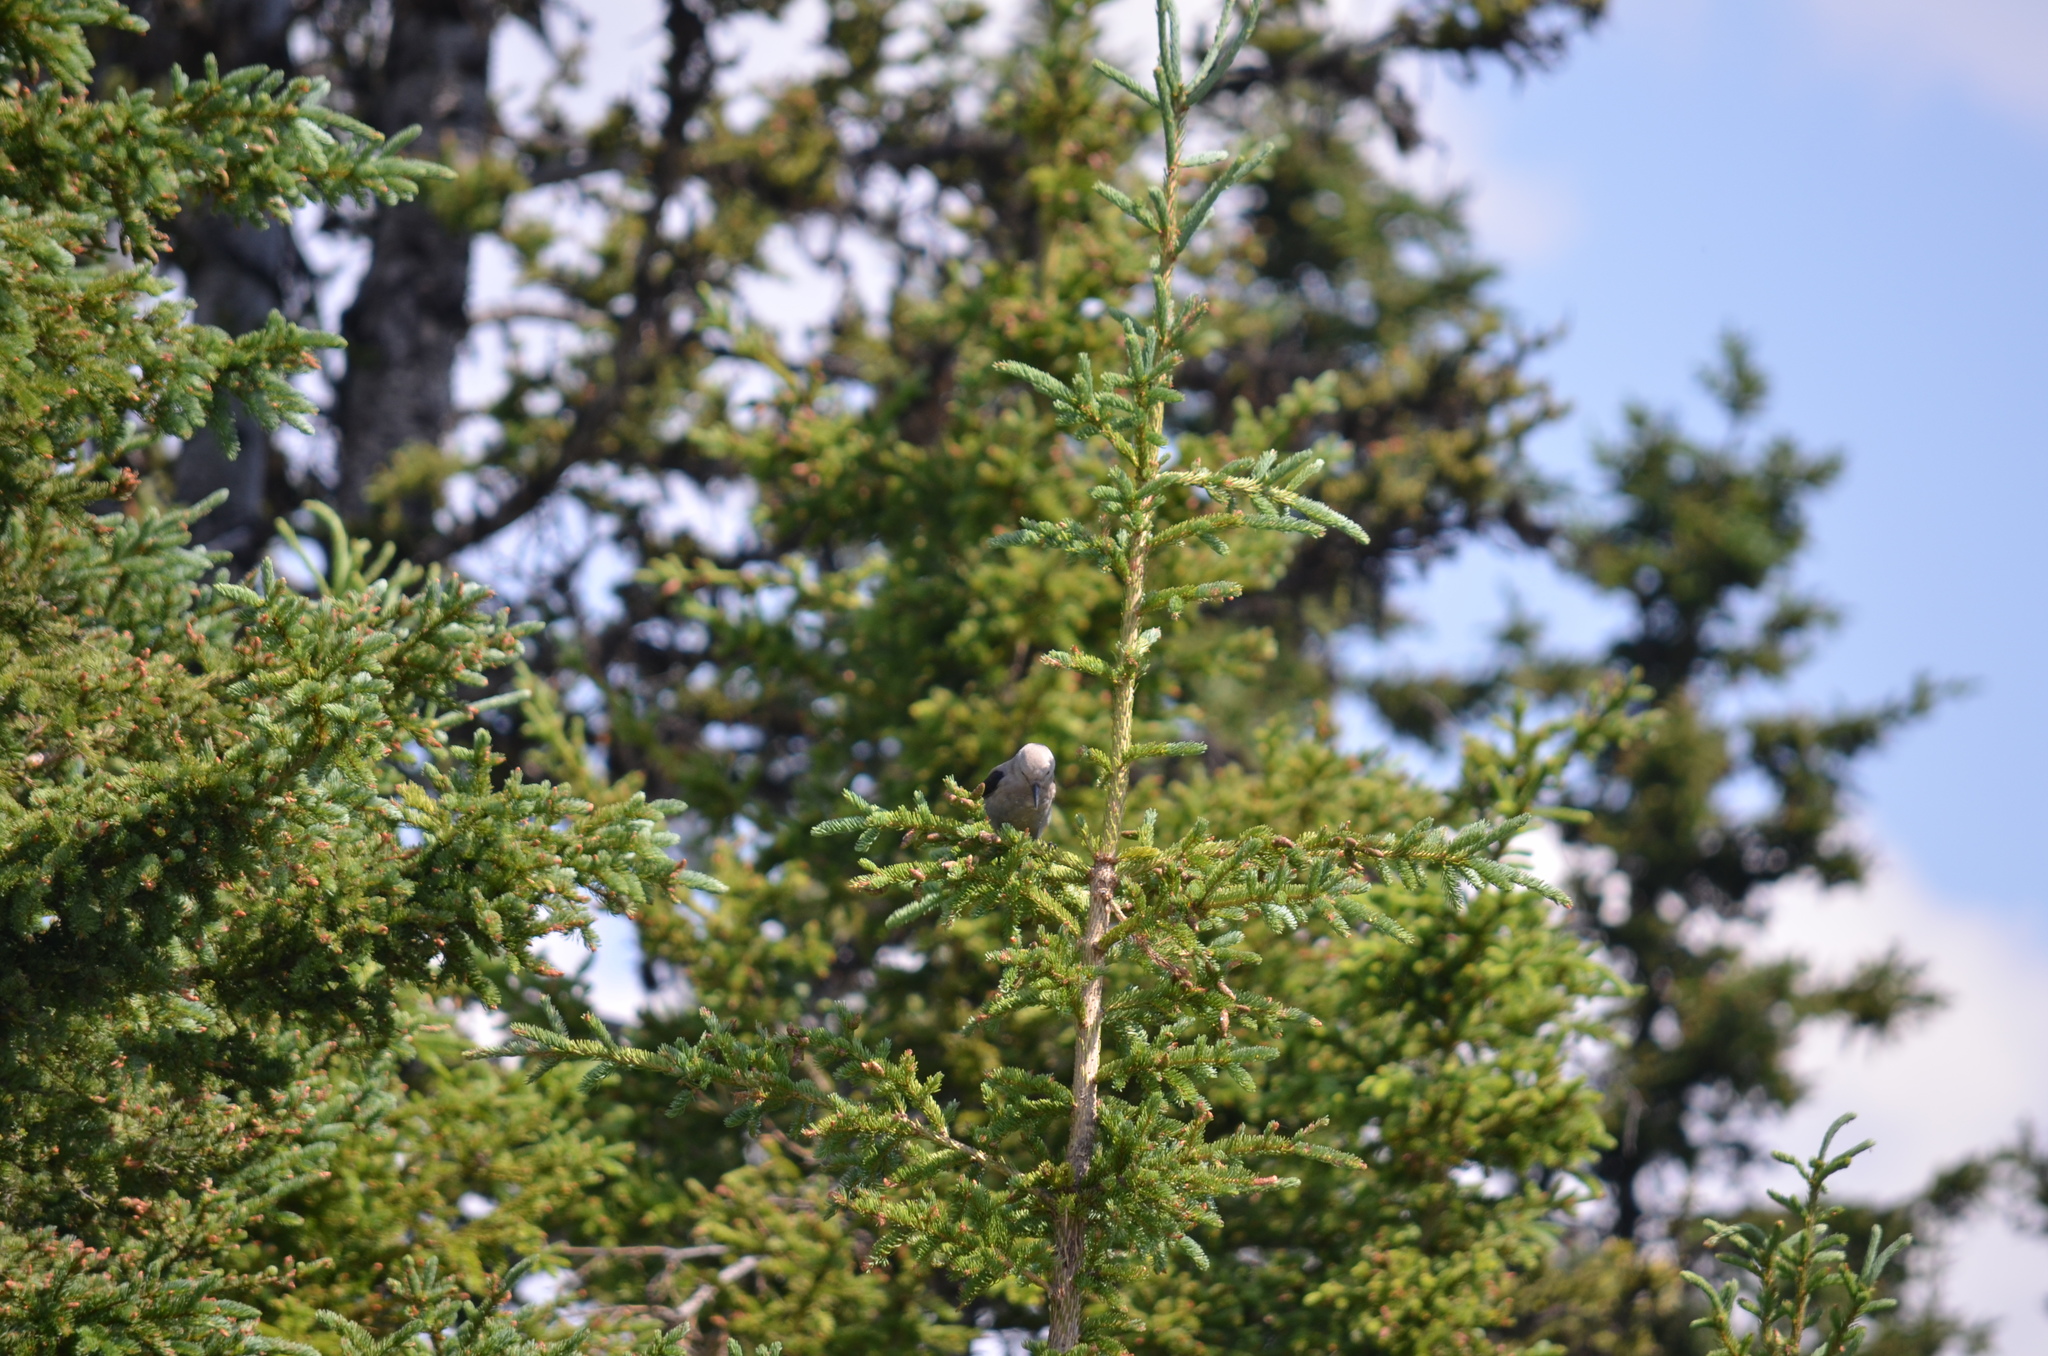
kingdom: Animalia
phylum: Chordata
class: Aves
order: Passeriformes
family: Corvidae
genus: Nucifraga
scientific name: Nucifraga columbiana
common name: Clark's nutcracker
